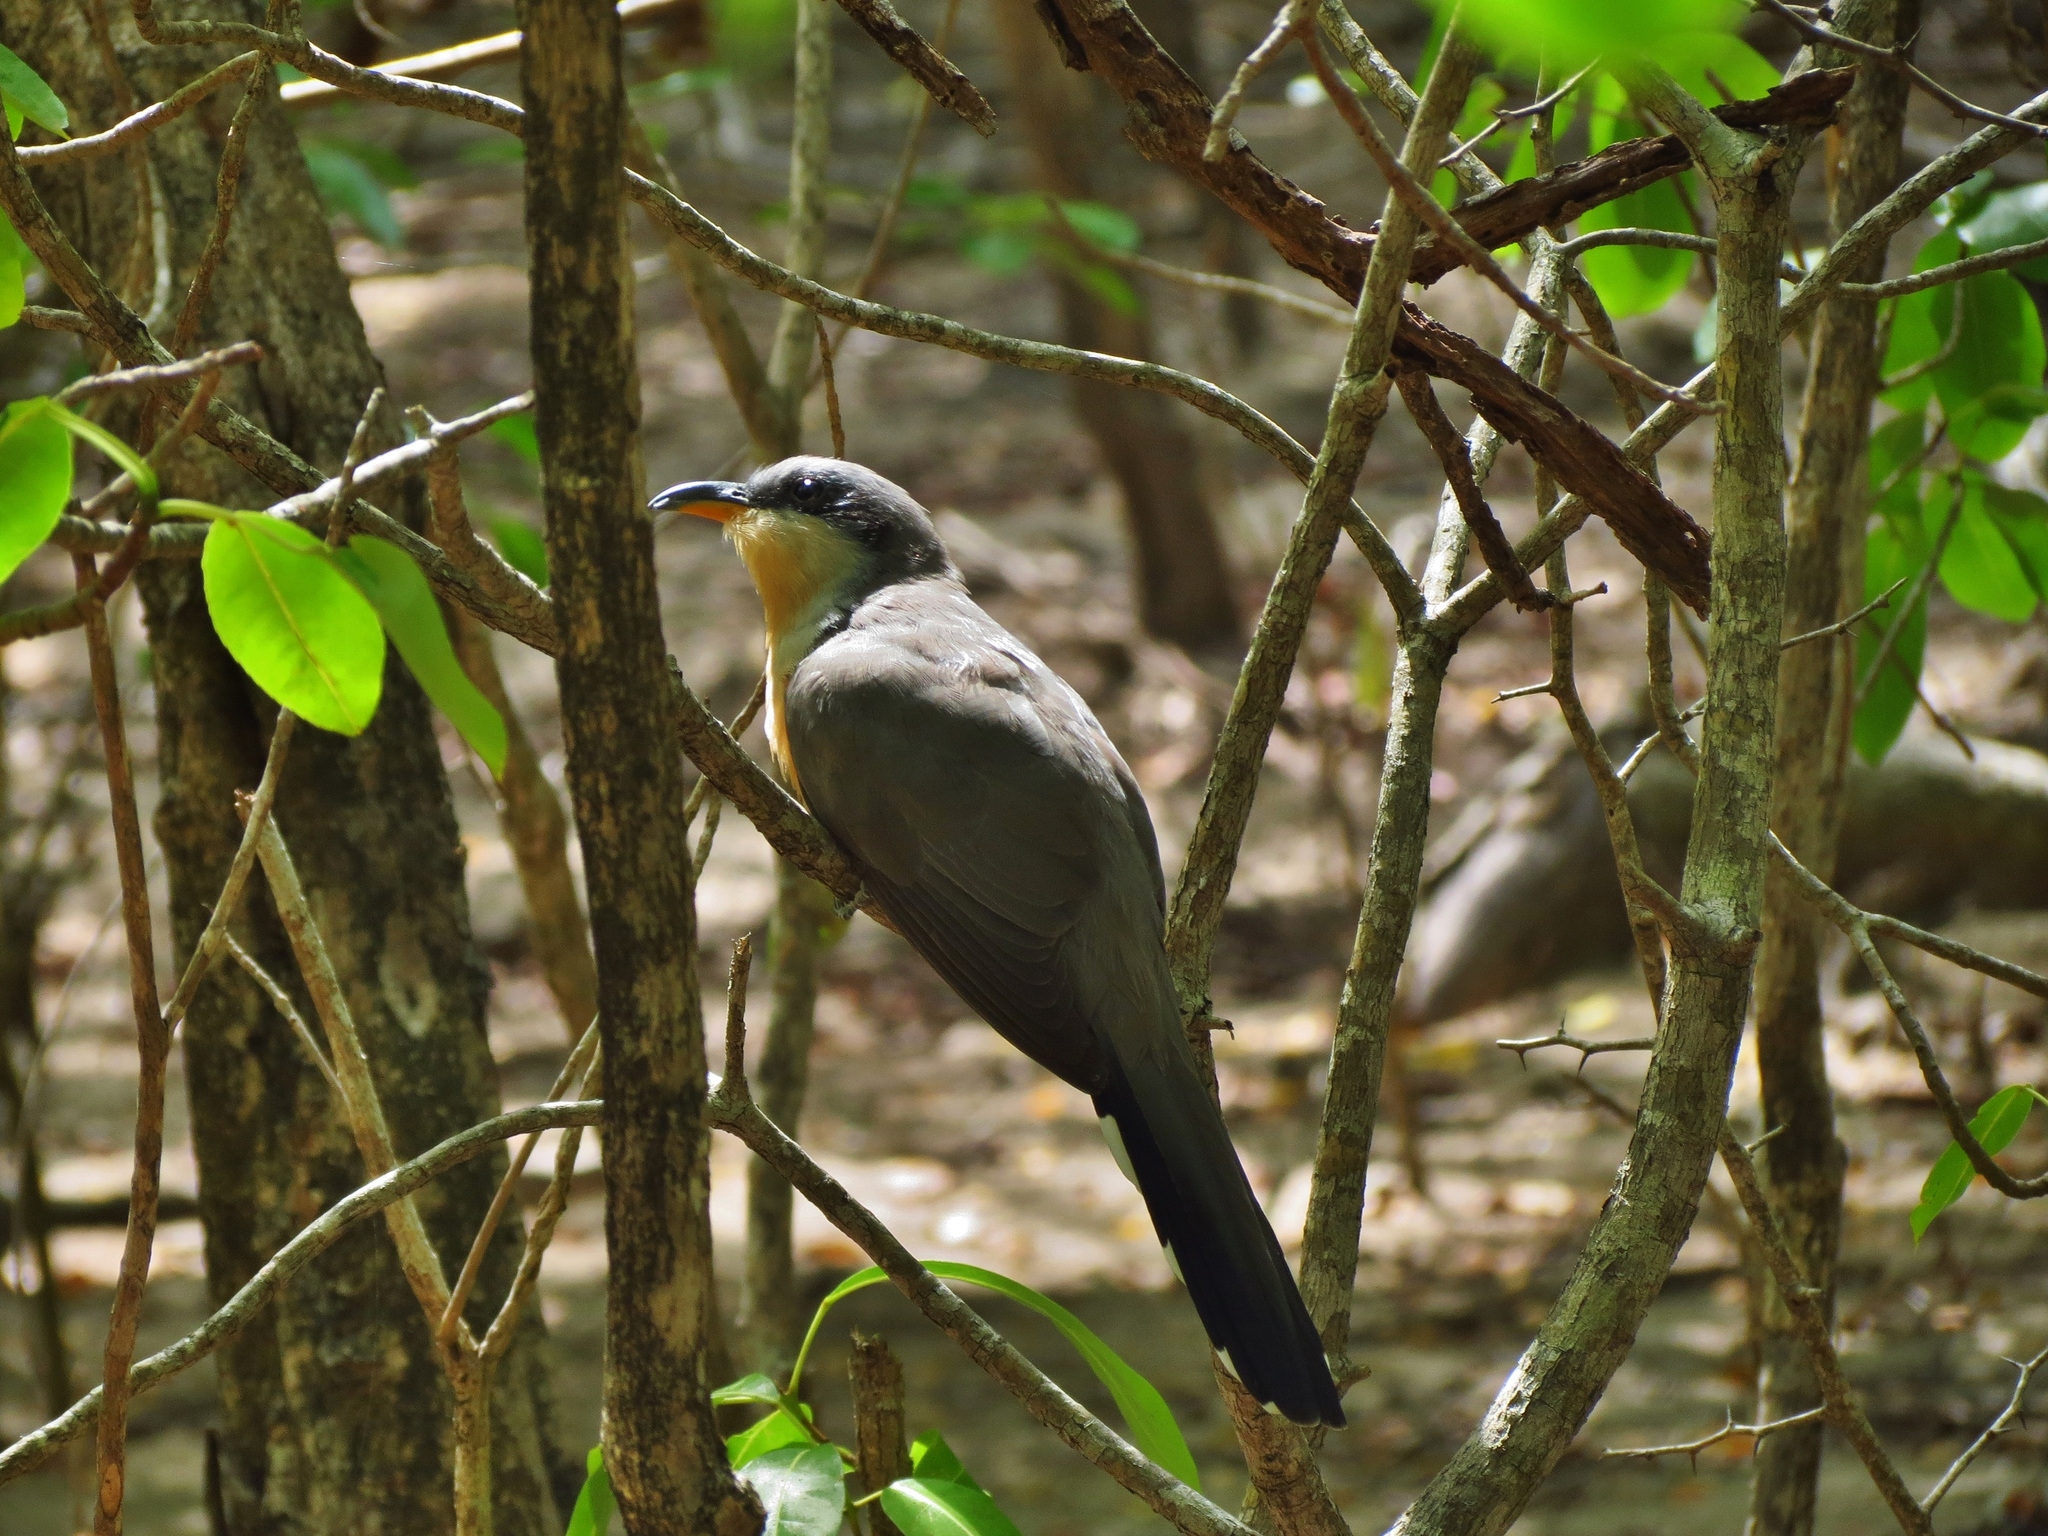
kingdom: Animalia
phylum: Chordata
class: Aves
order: Cuculiformes
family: Cuculidae
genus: Coccyzus
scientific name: Coccyzus minor
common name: Mangrove cuckoo
